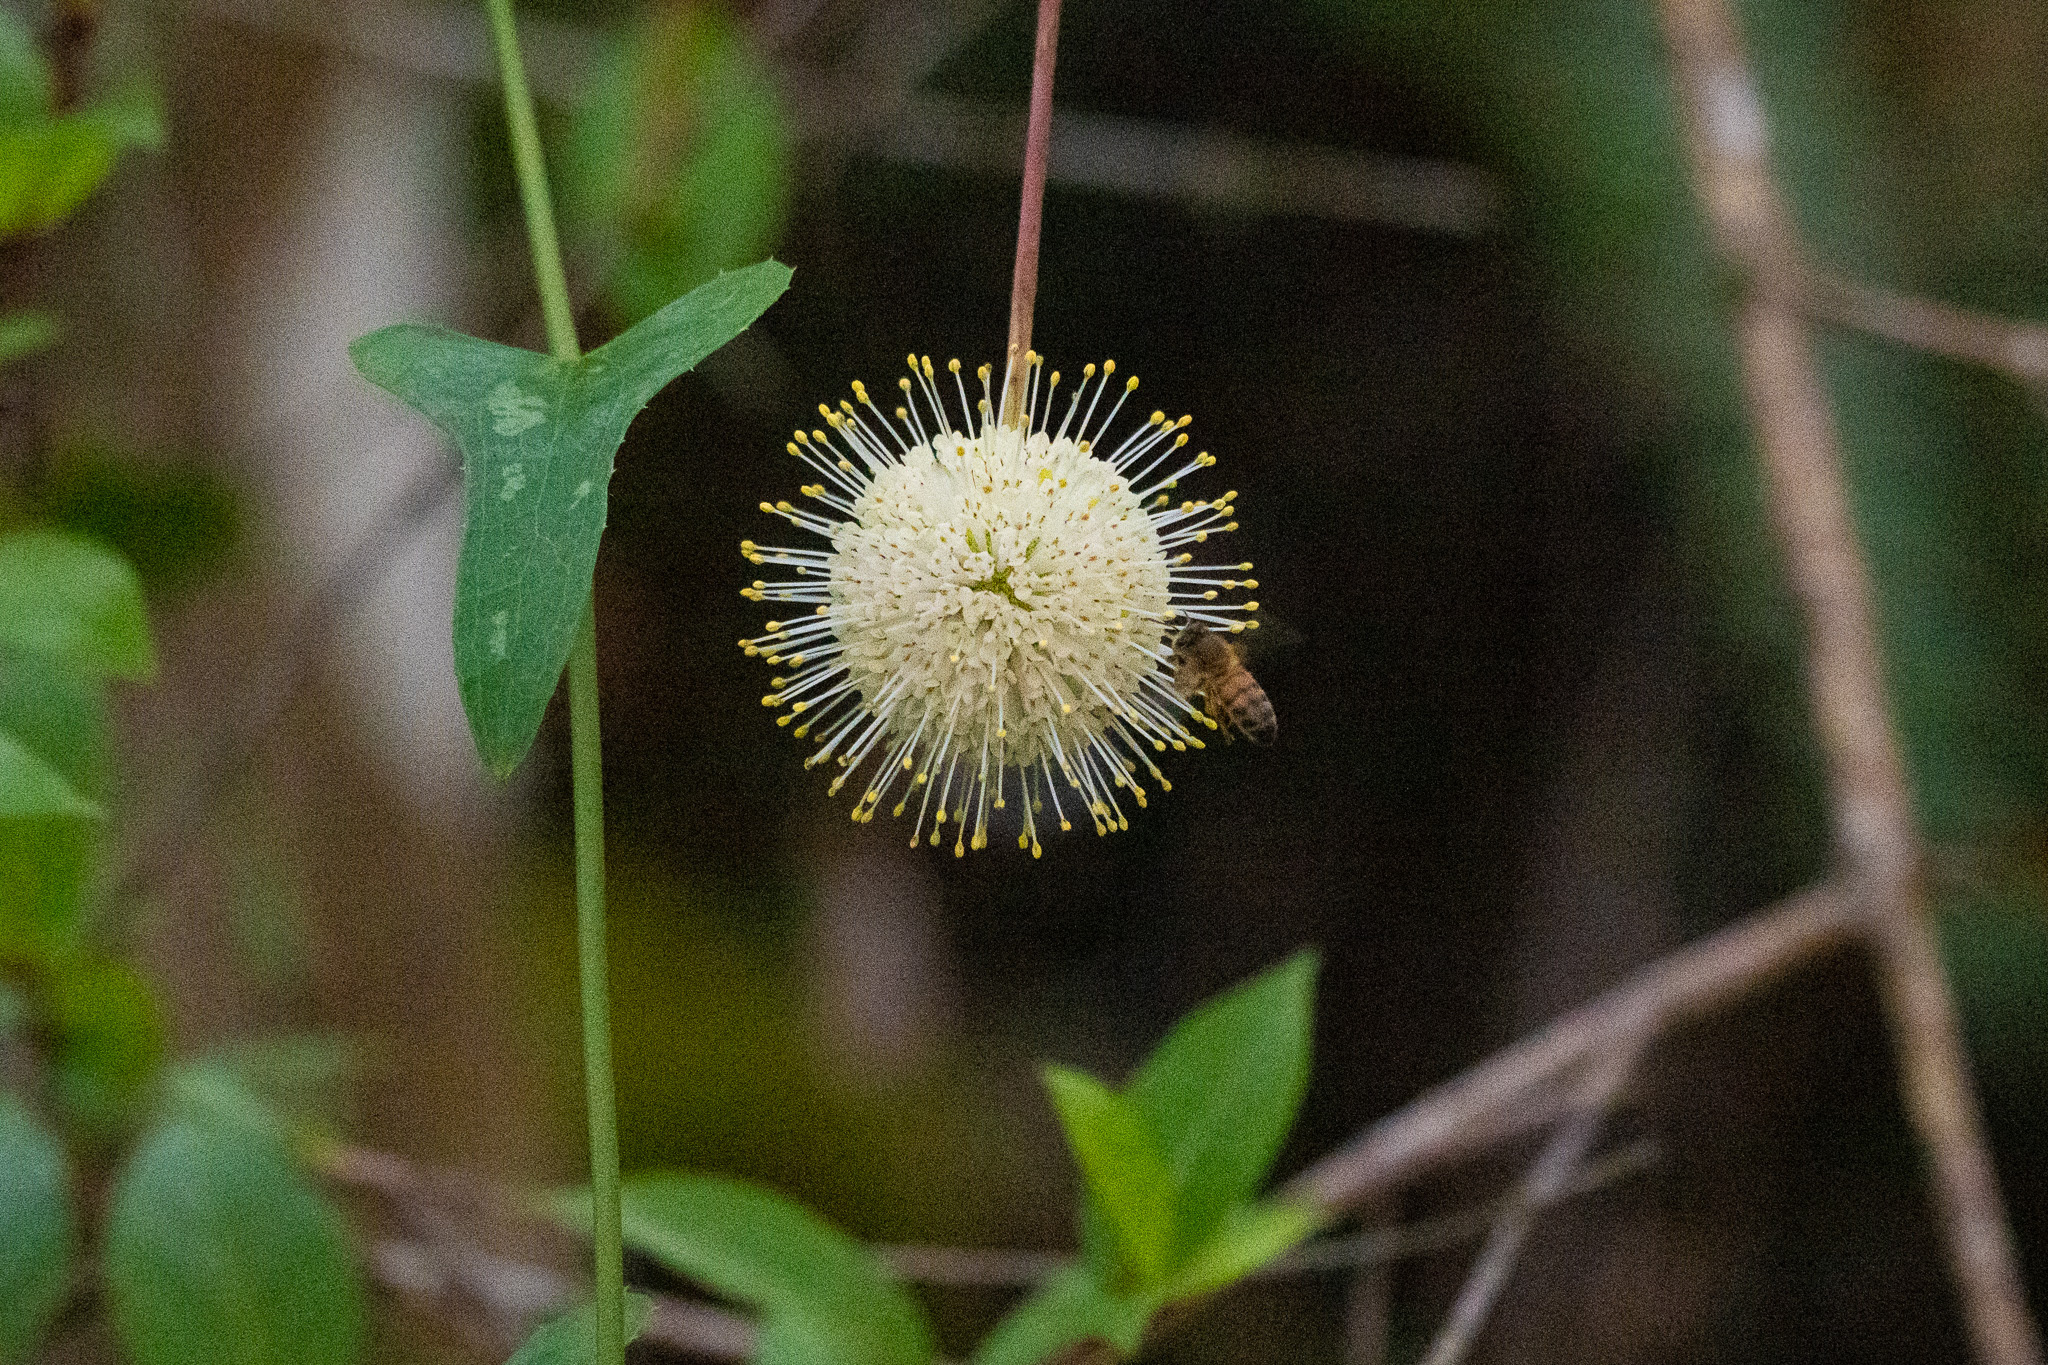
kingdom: Plantae
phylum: Tracheophyta
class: Magnoliopsida
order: Gentianales
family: Rubiaceae
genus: Cephalanthus
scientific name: Cephalanthus occidentalis
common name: Button-willow
